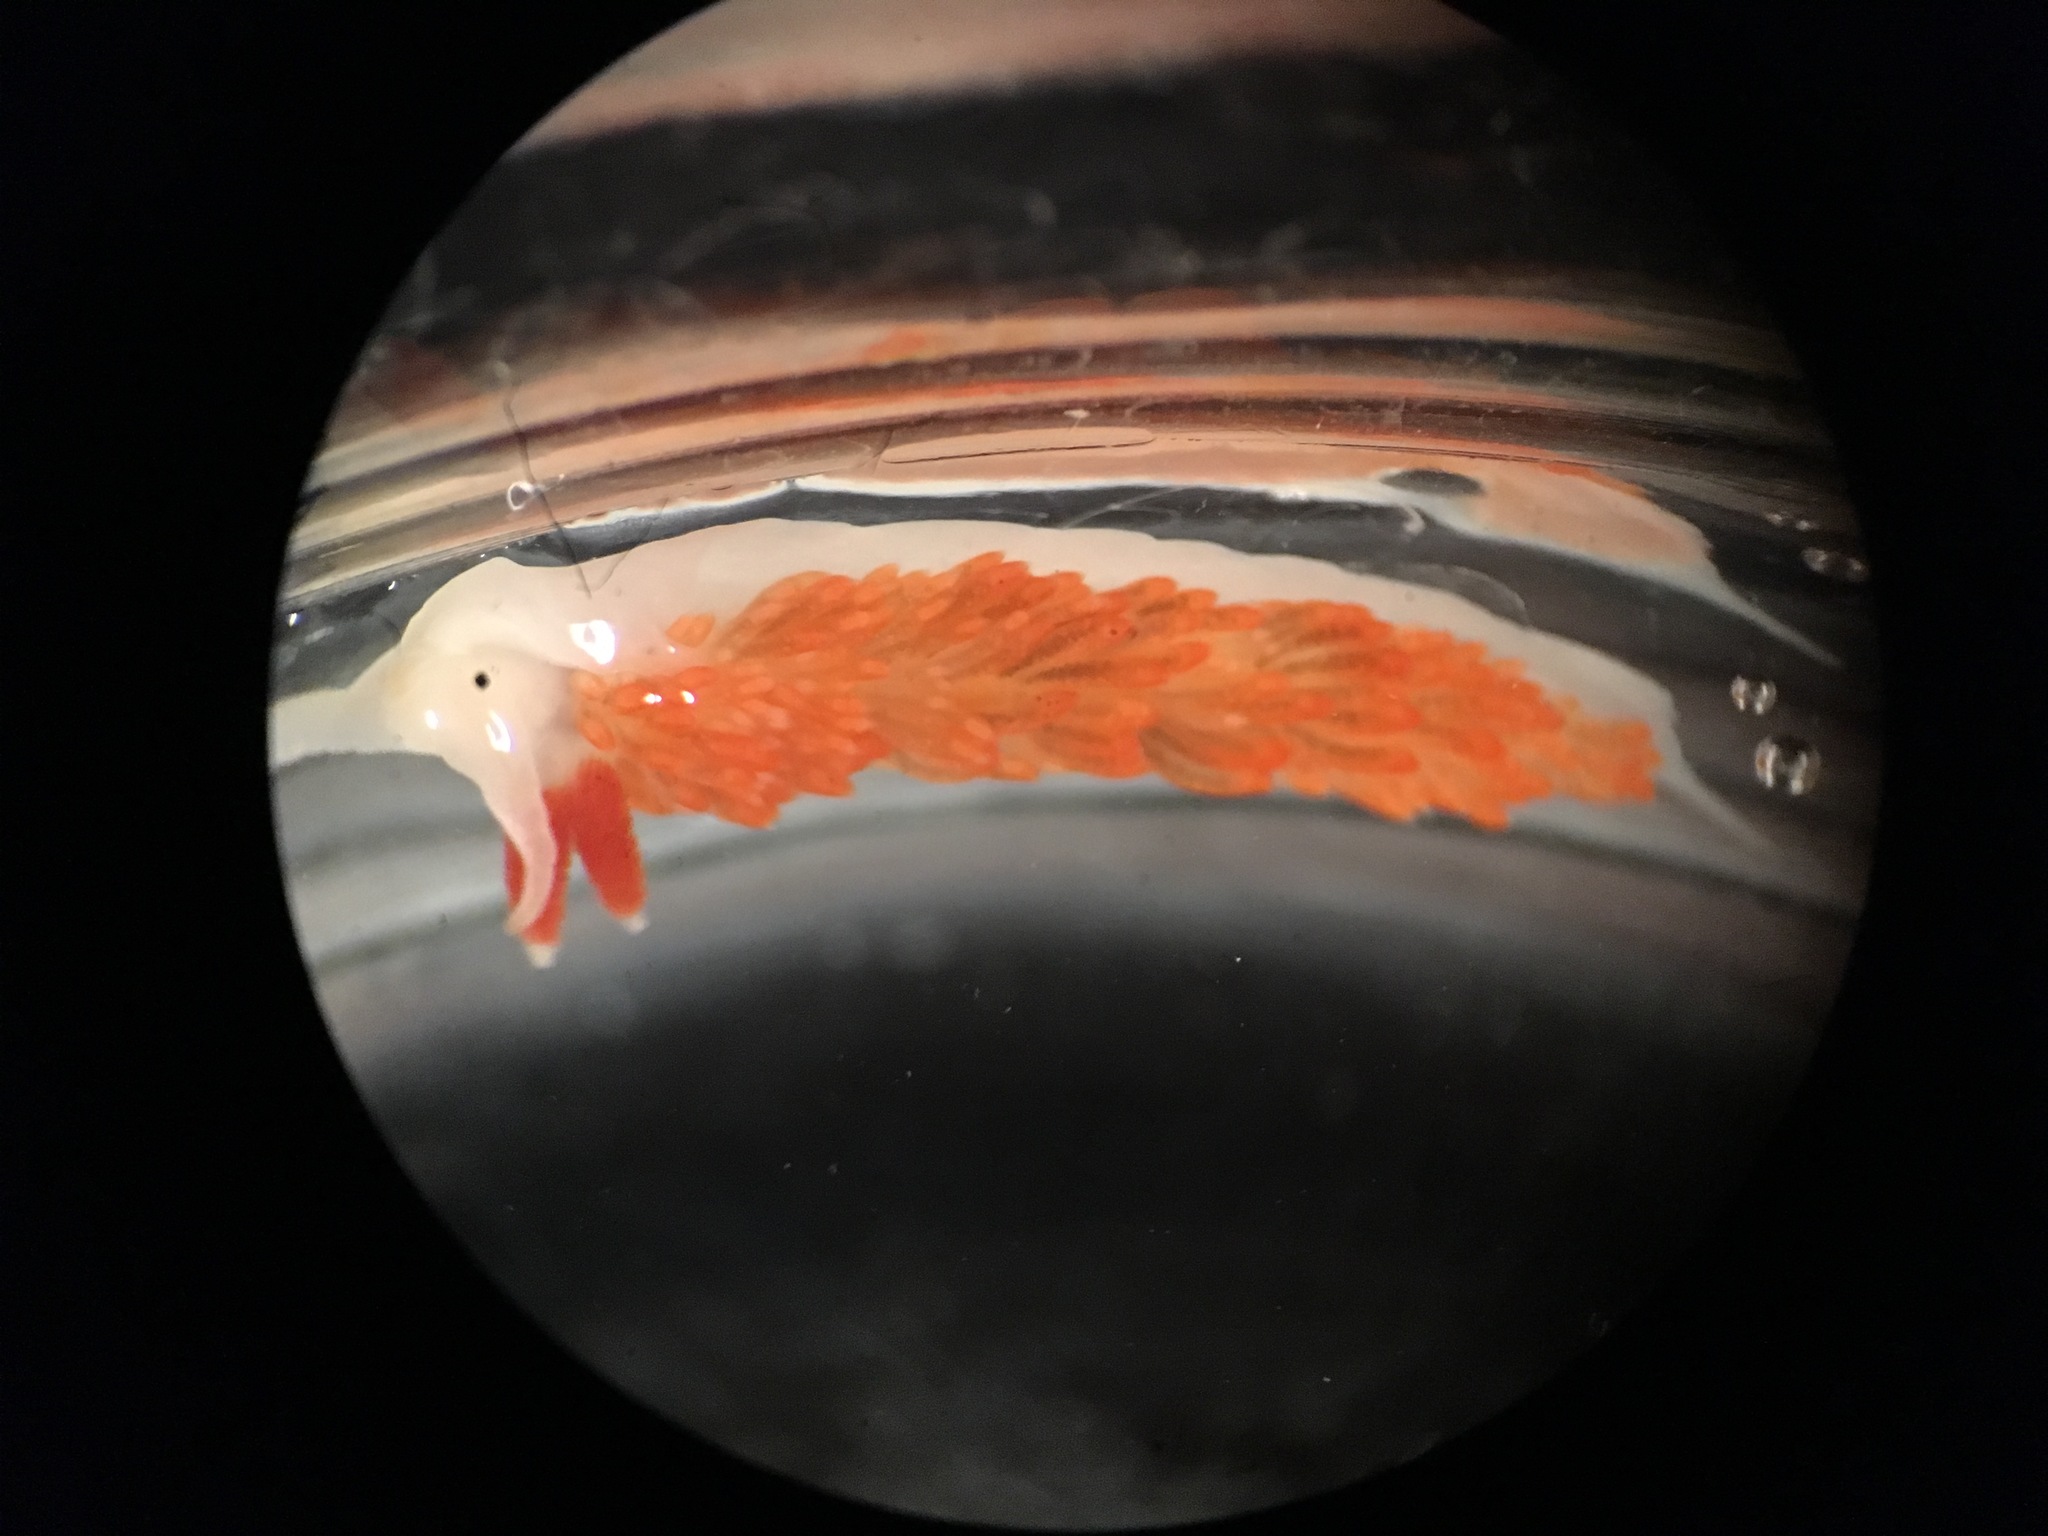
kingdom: Animalia
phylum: Mollusca
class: Gastropoda
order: Nudibranchia
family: Aeolidiidae
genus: Anteaeolidiella
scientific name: Anteaeolidiella oliviae
